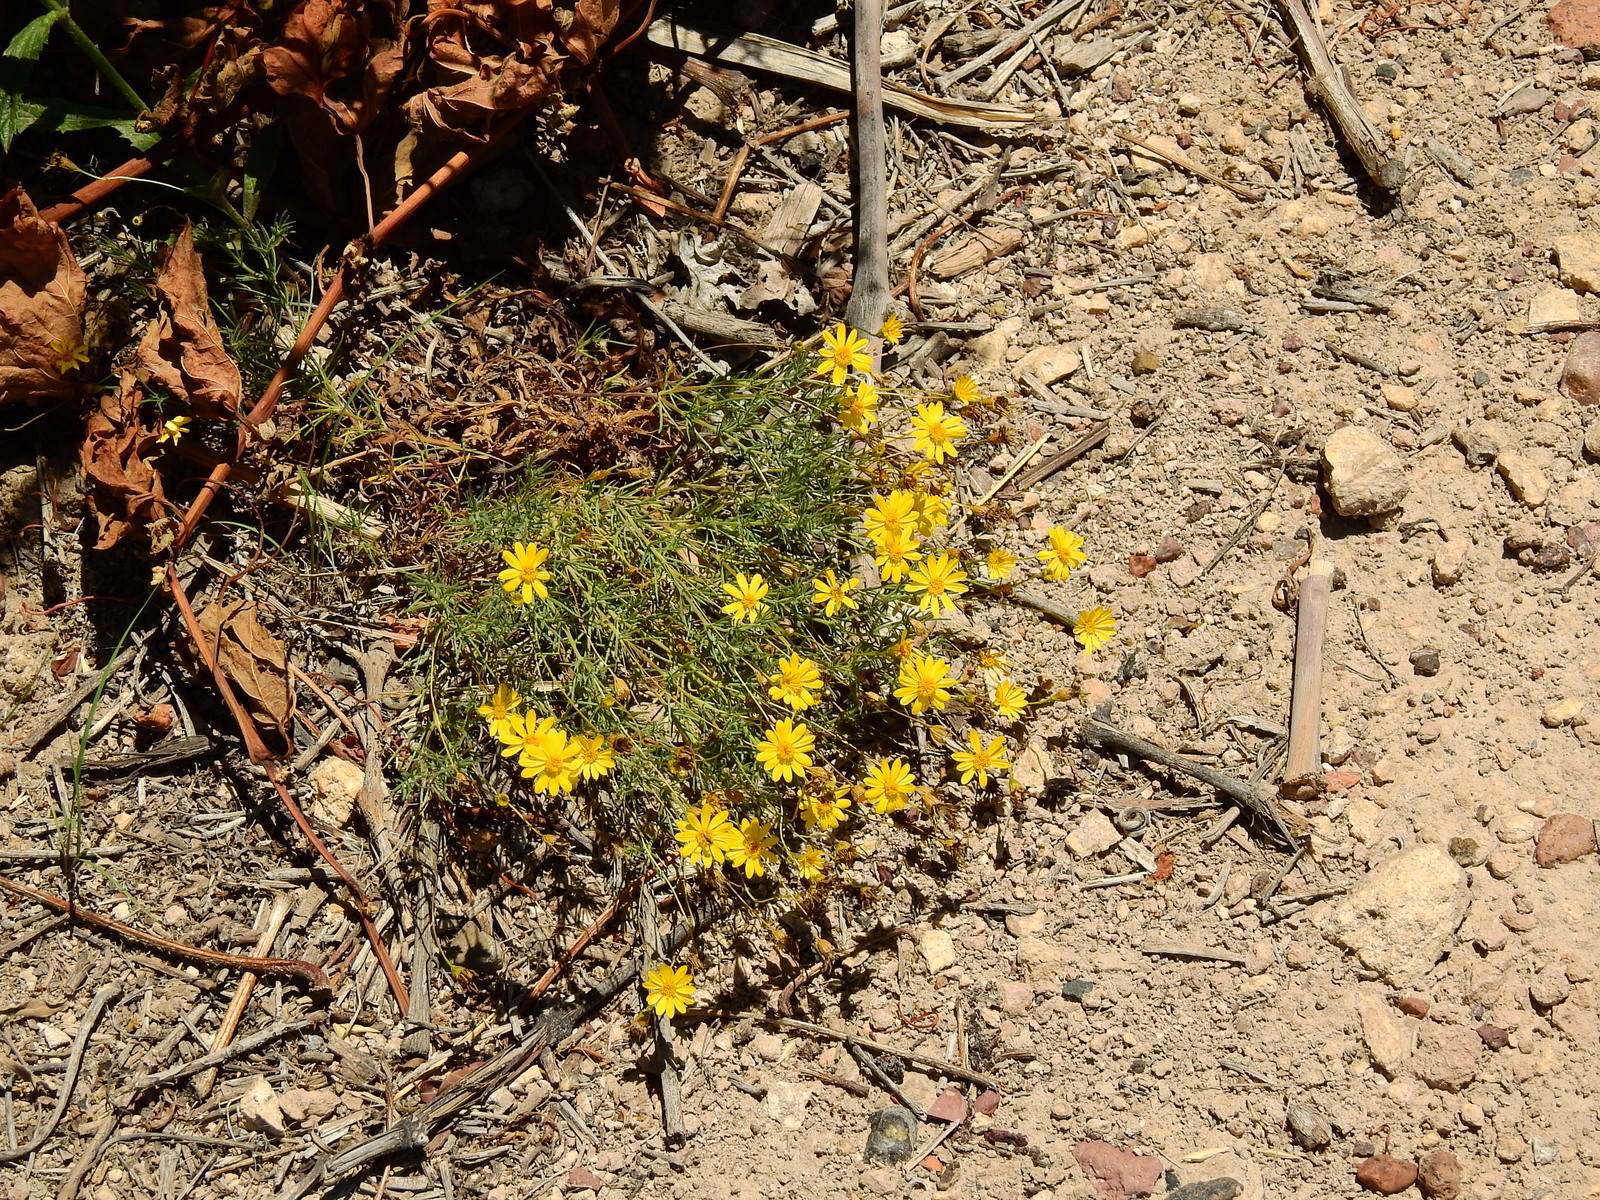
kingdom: Plantae
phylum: Tracheophyta
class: Magnoliopsida
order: Asterales
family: Asteraceae
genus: Thymophylla
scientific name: Thymophylla pentachaeta
